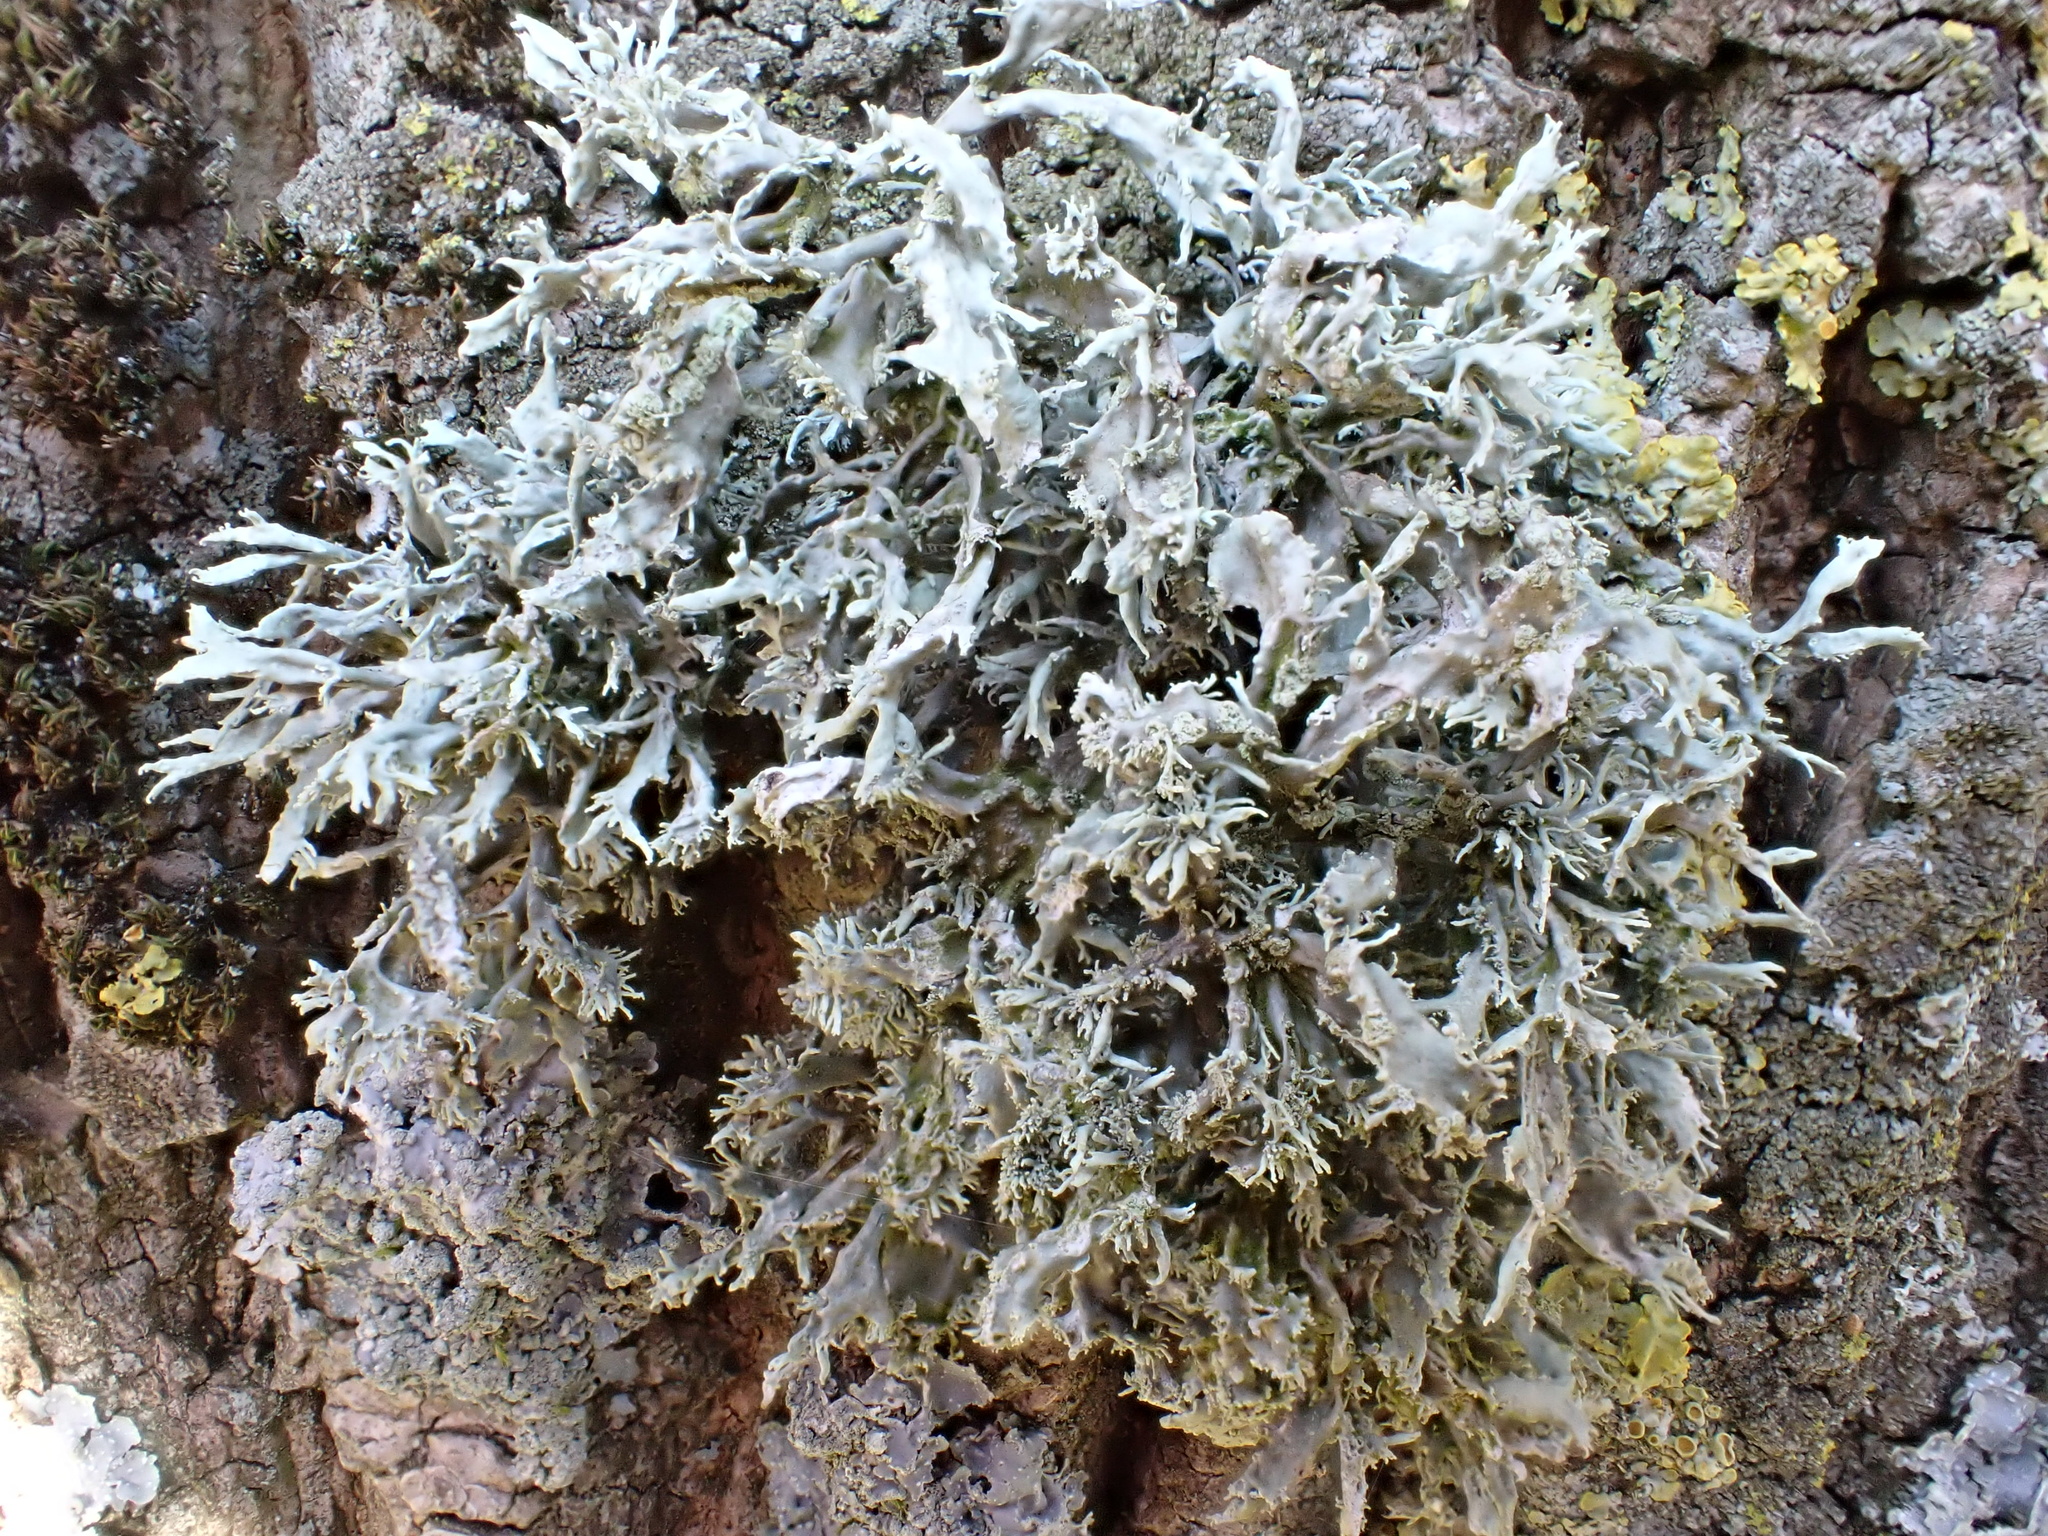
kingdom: Fungi
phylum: Ascomycota
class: Lecanoromycetes
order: Lecanorales
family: Ramalinaceae
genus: Ramalina
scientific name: Ramalina farinacea
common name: Farinose cartilage lichen
